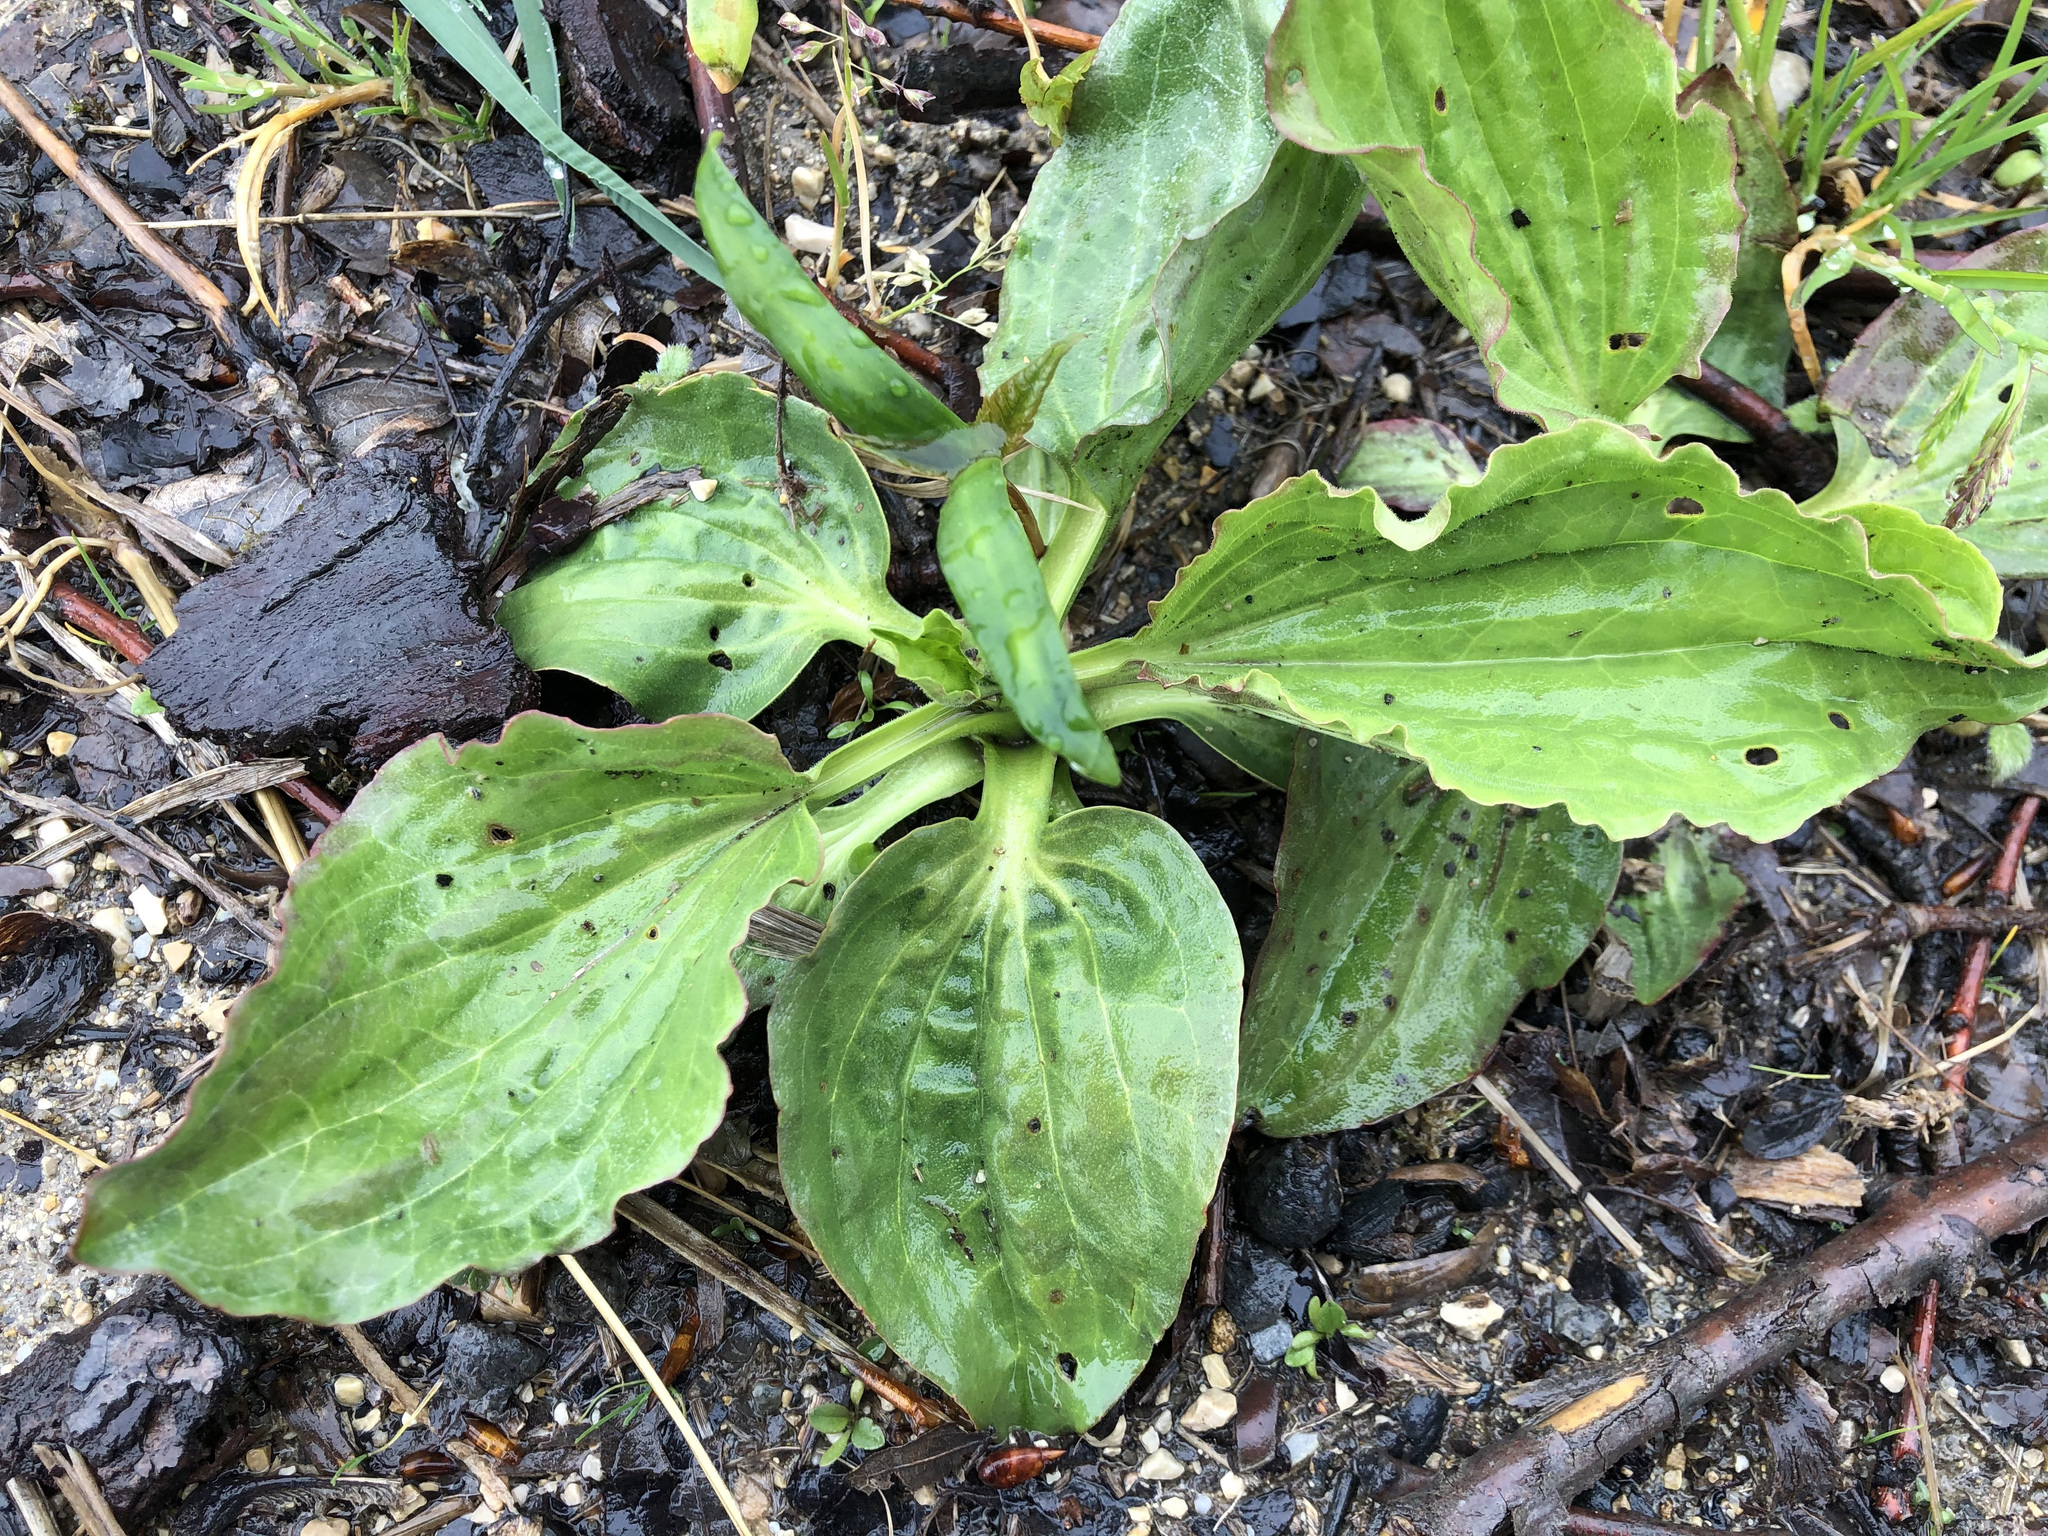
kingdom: Plantae
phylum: Tracheophyta
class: Magnoliopsida
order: Lamiales
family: Plantaginaceae
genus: Plantago
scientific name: Plantago major
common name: Common plantain
